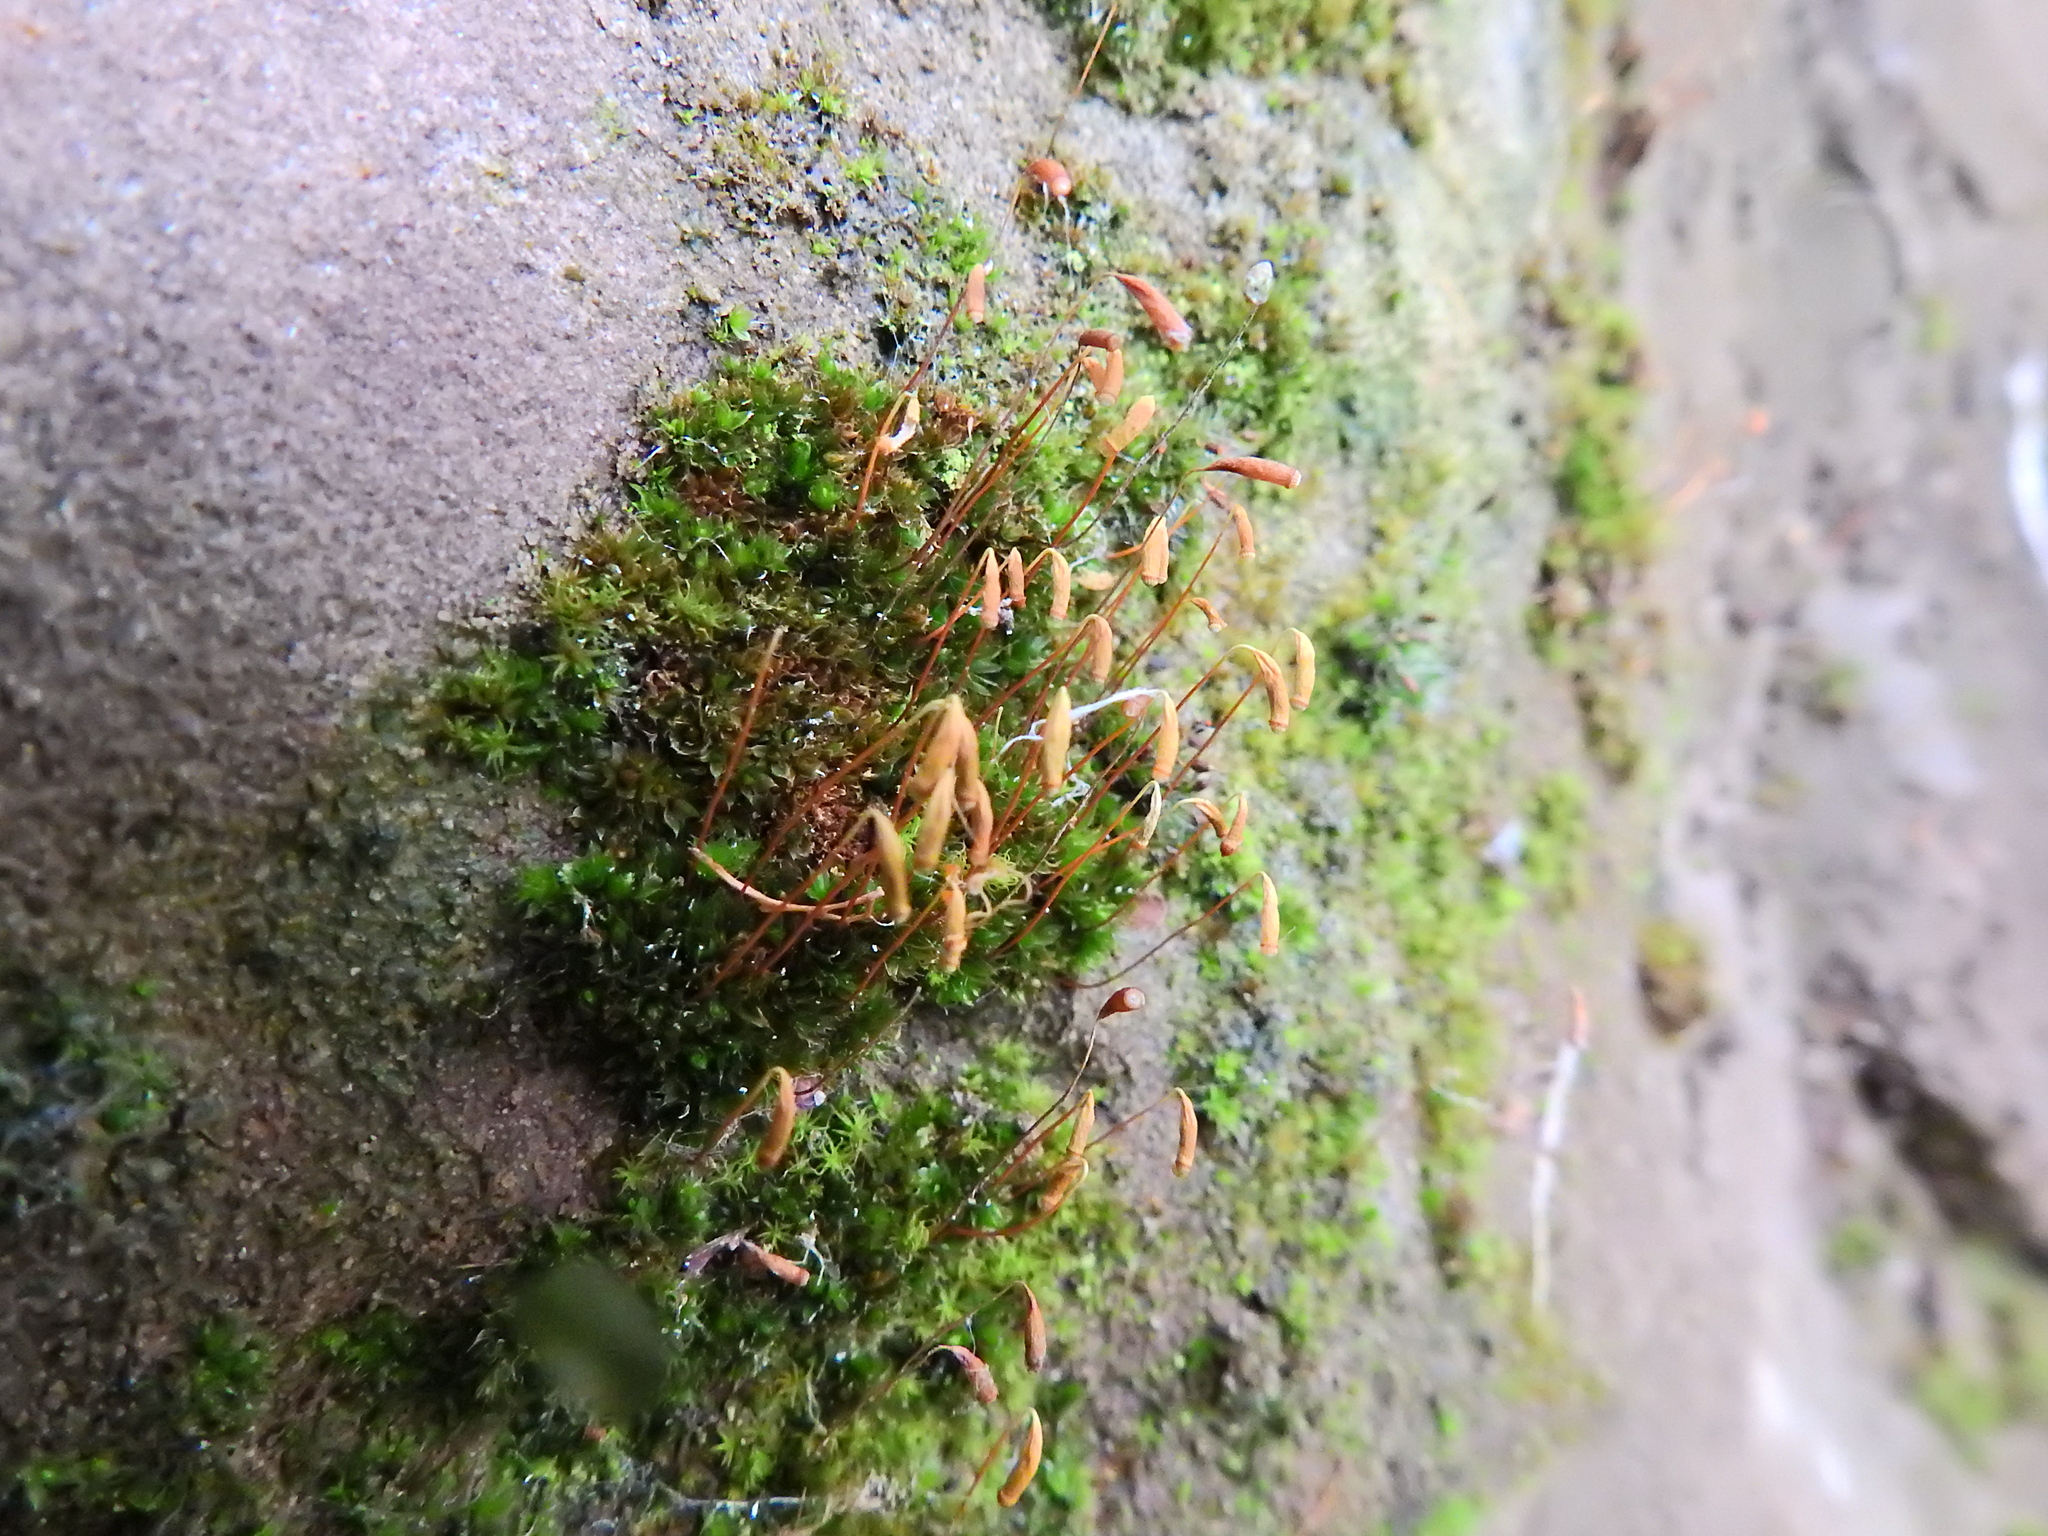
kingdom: Plantae
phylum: Bryophyta
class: Bryopsida
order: Bryales
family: Bryaceae
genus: Rosulabryum
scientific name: Rosulabryum capillare
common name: Capillary thread-moss
